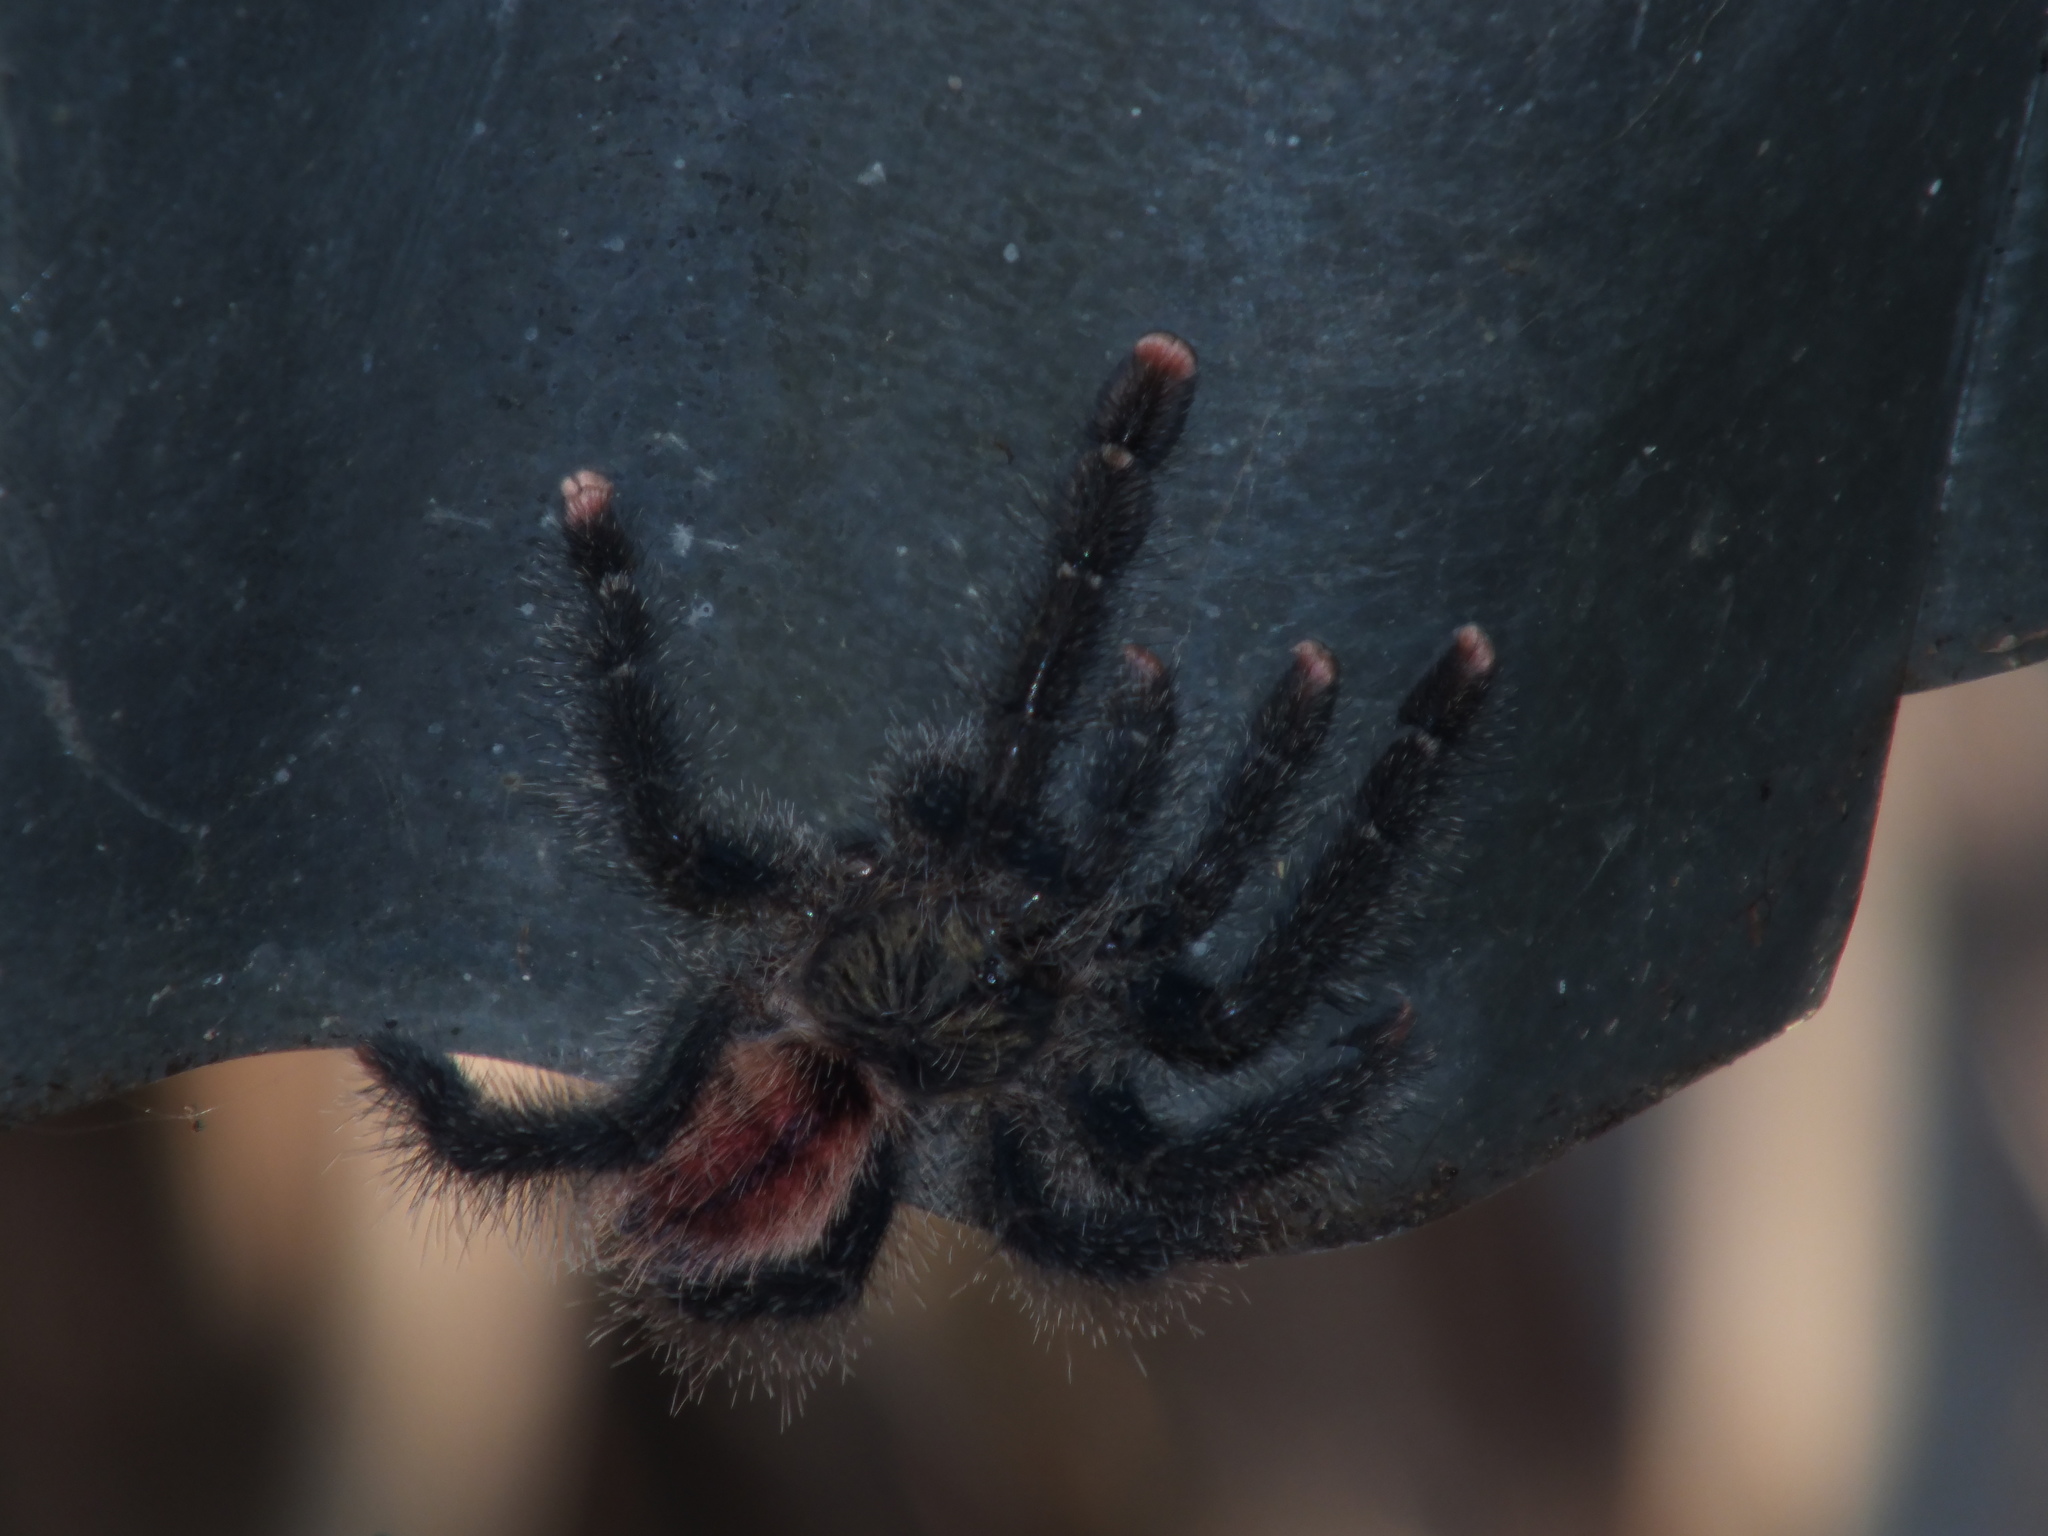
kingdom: Animalia
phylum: Arthropoda
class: Arachnida
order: Araneae
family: Theraphosidae
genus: Avicularia
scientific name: Avicularia juruensis
